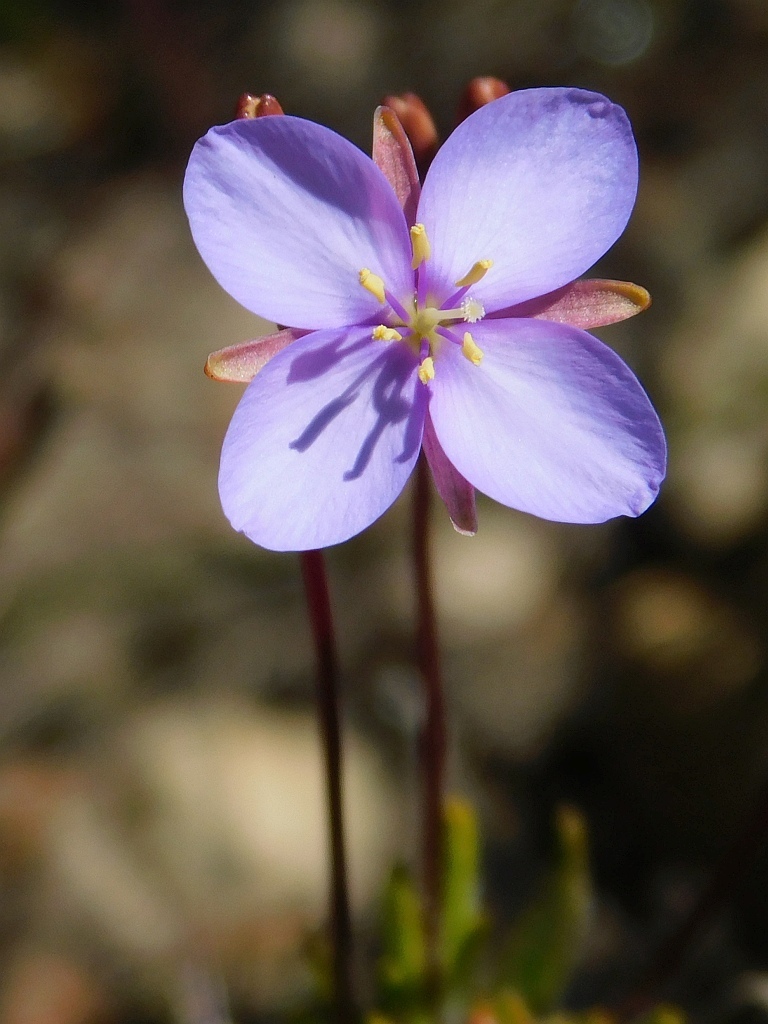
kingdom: Plantae
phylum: Tracheophyta
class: Magnoliopsida
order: Brassicales
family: Brassicaceae
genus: Heliophila
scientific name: Heliophila subulata
